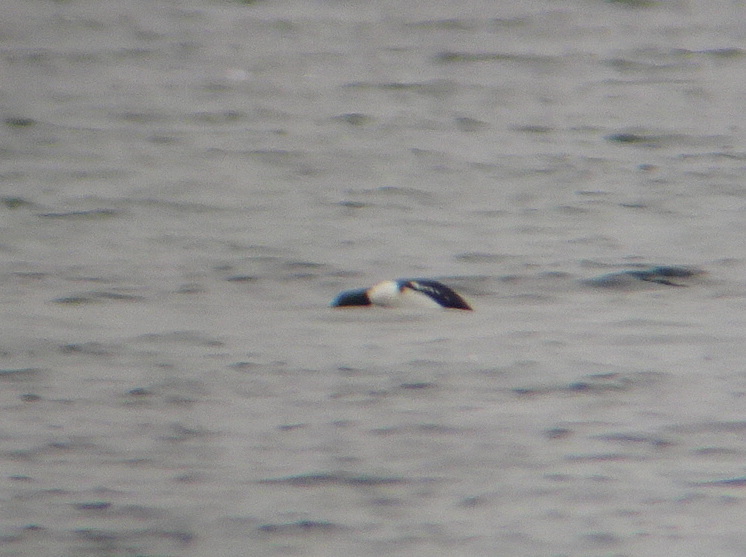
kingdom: Animalia
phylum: Chordata
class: Aves
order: Anseriformes
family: Anatidae
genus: Bucephala
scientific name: Bucephala islandica
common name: Barrow's goldeneye
